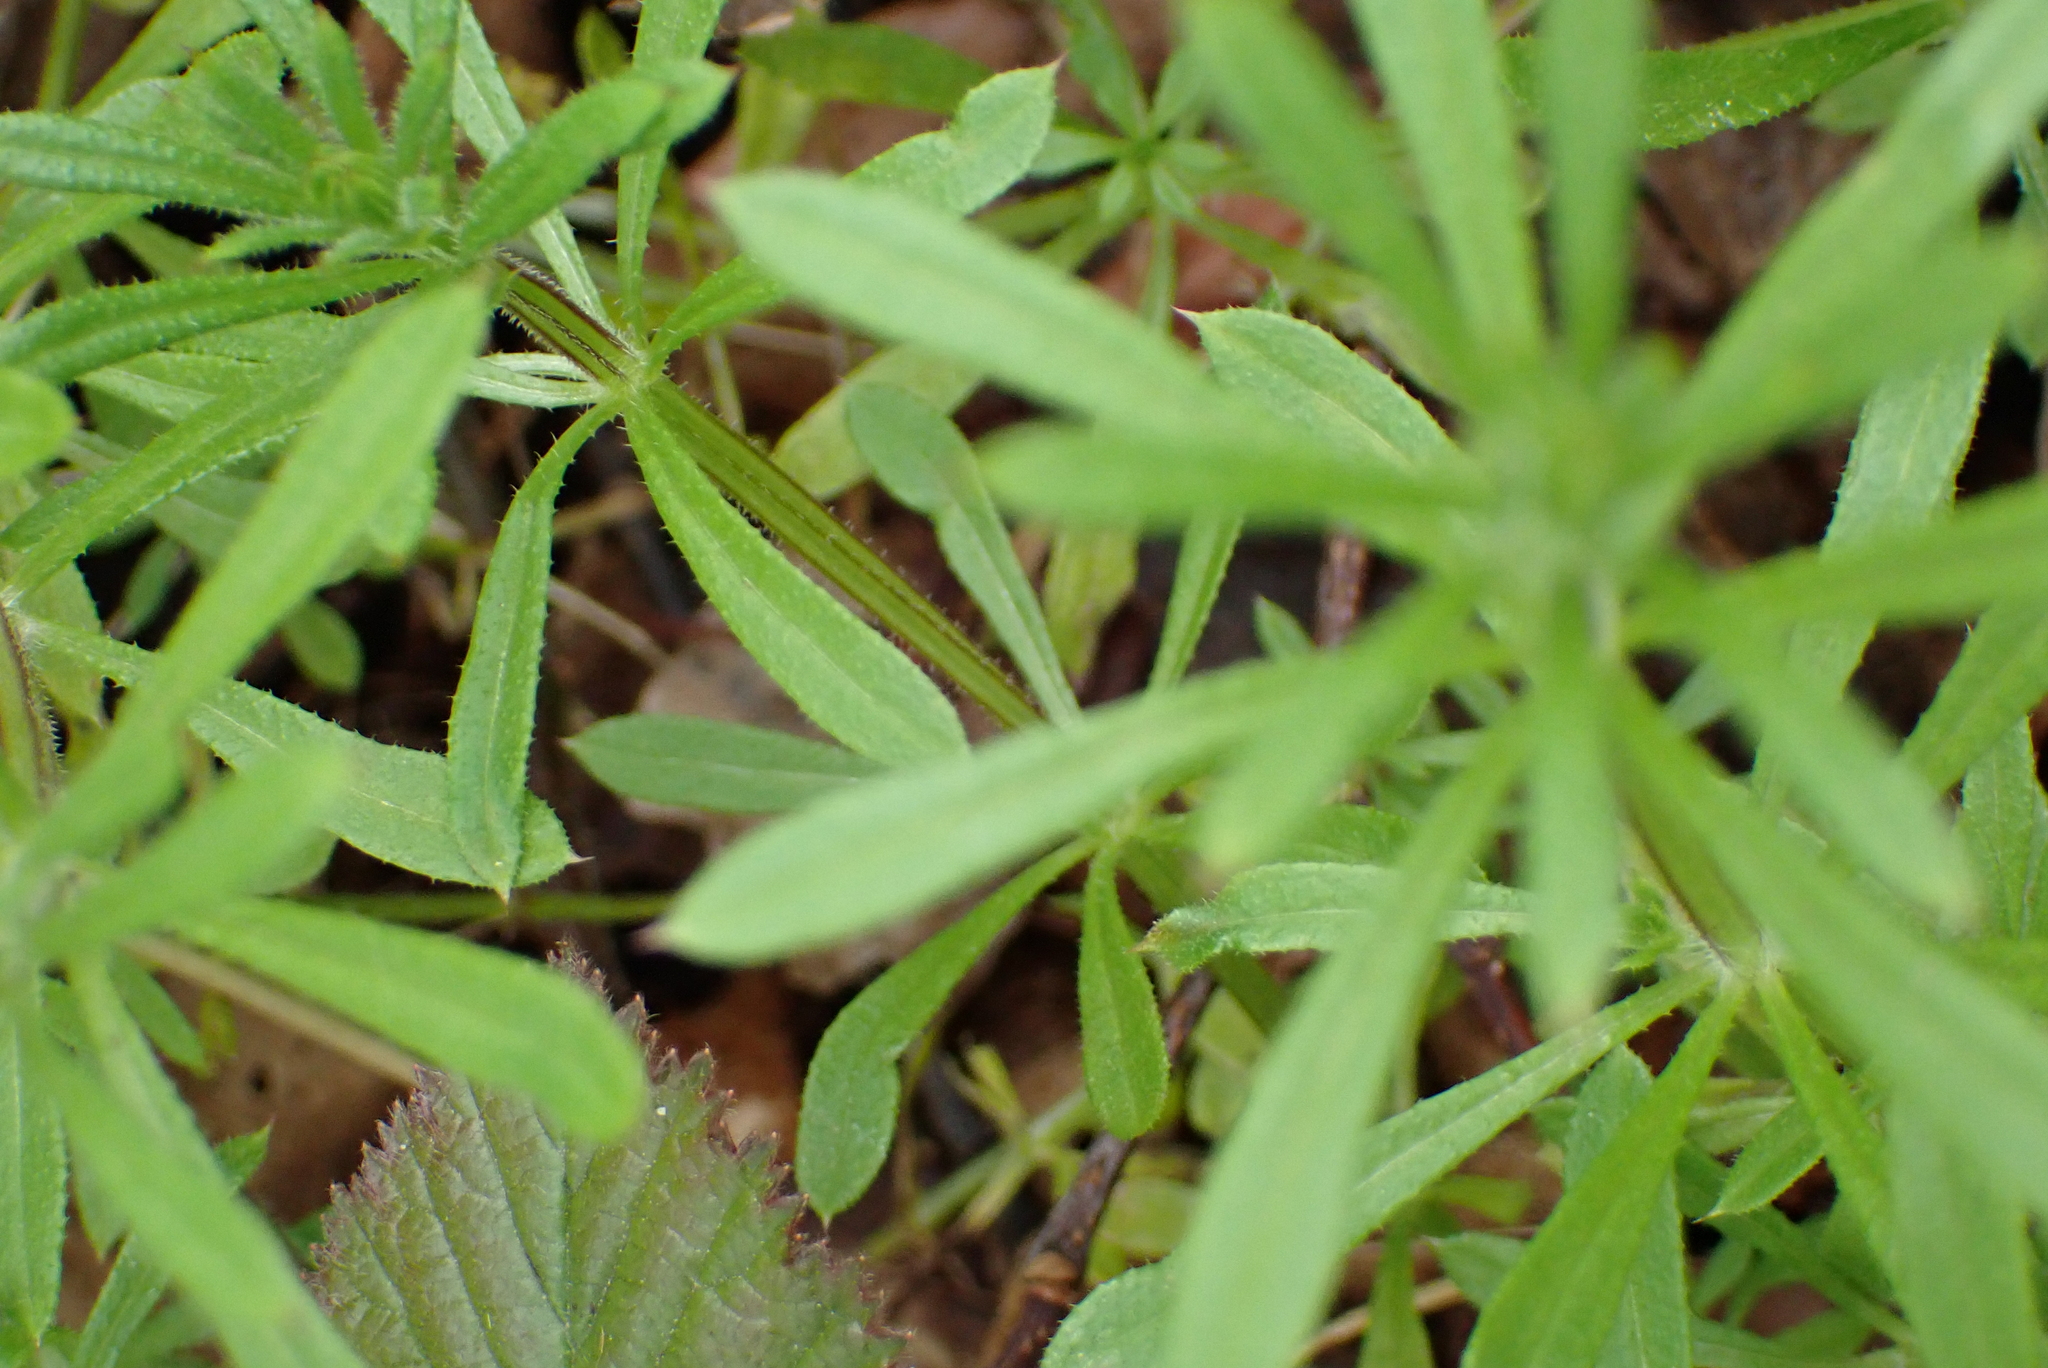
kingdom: Plantae
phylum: Tracheophyta
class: Magnoliopsida
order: Gentianales
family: Rubiaceae
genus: Galium
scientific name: Galium aparine
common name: Cleavers
